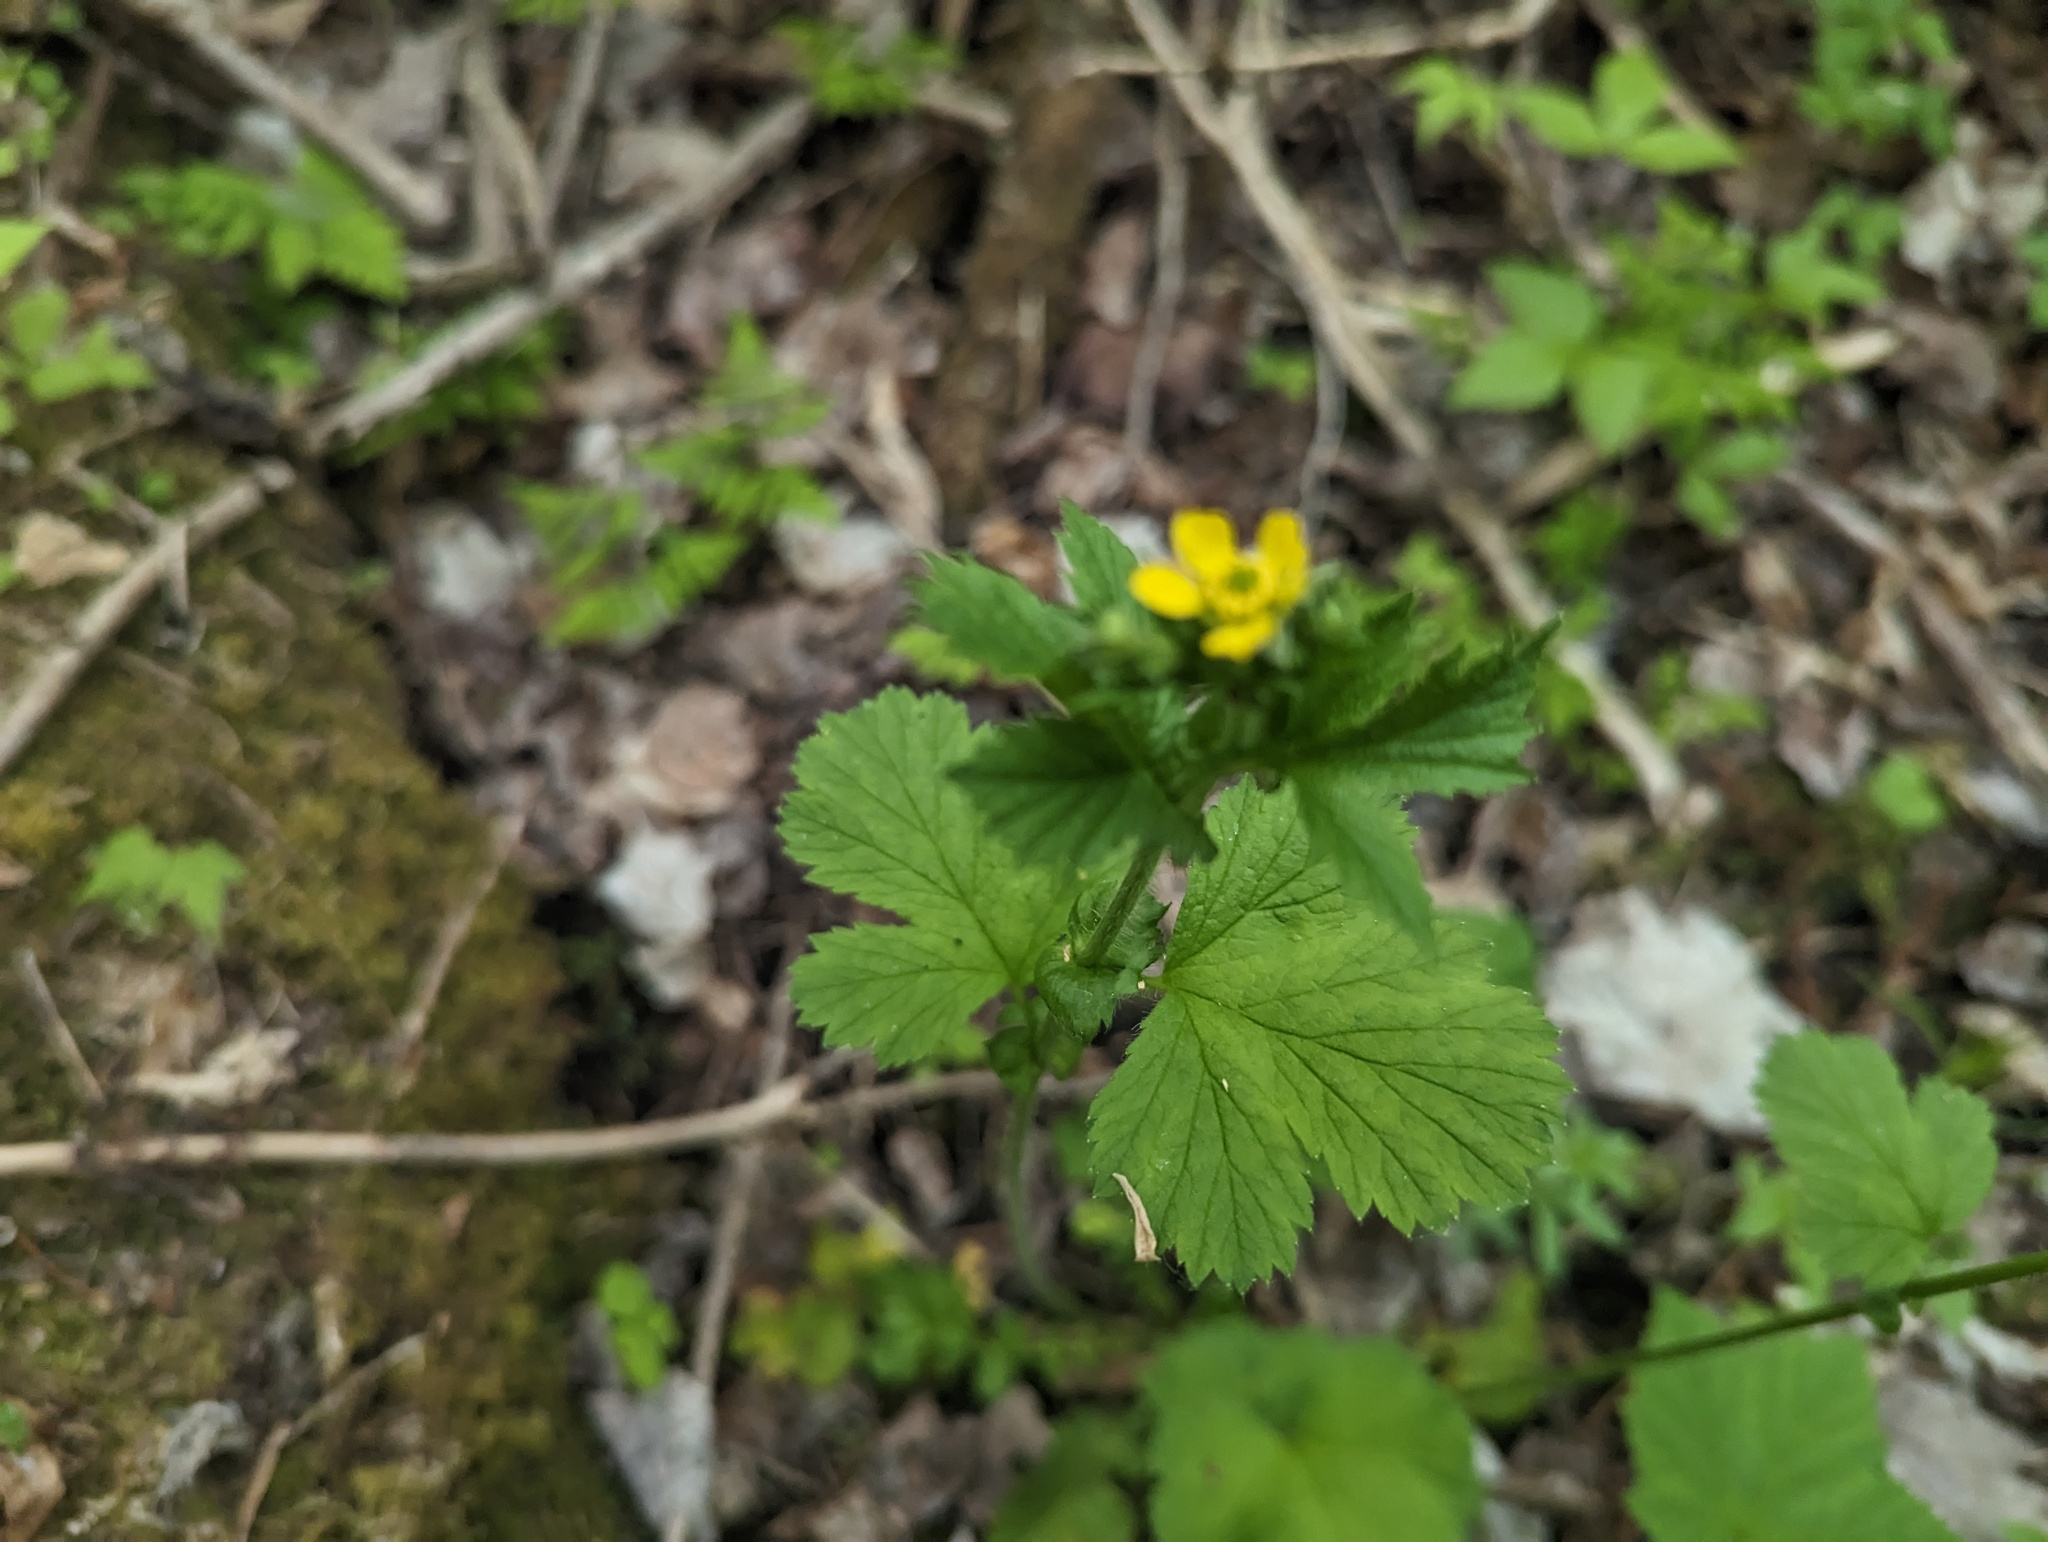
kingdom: Plantae
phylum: Tracheophyta
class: Magnoliopsida
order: Rosales
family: Rosaceae
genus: Geum
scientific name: Geum macrophyllum
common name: Large-leaved avens
